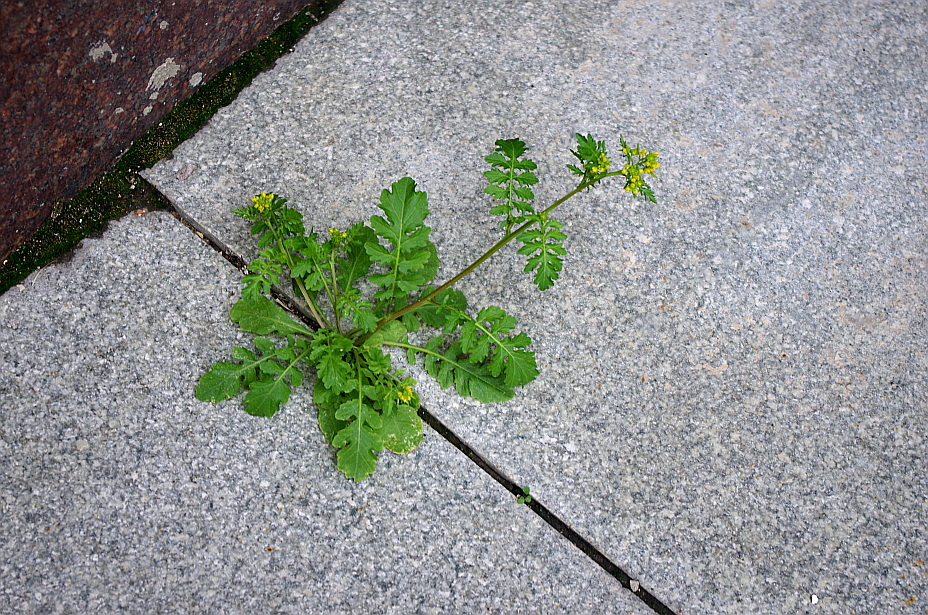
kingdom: Plantae
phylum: Tracheophyta
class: Magnoliopsida
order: Brassicales
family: Brassicaceae
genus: Rorippa
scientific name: Rorippa palustris
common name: Marsh yellow-cress
